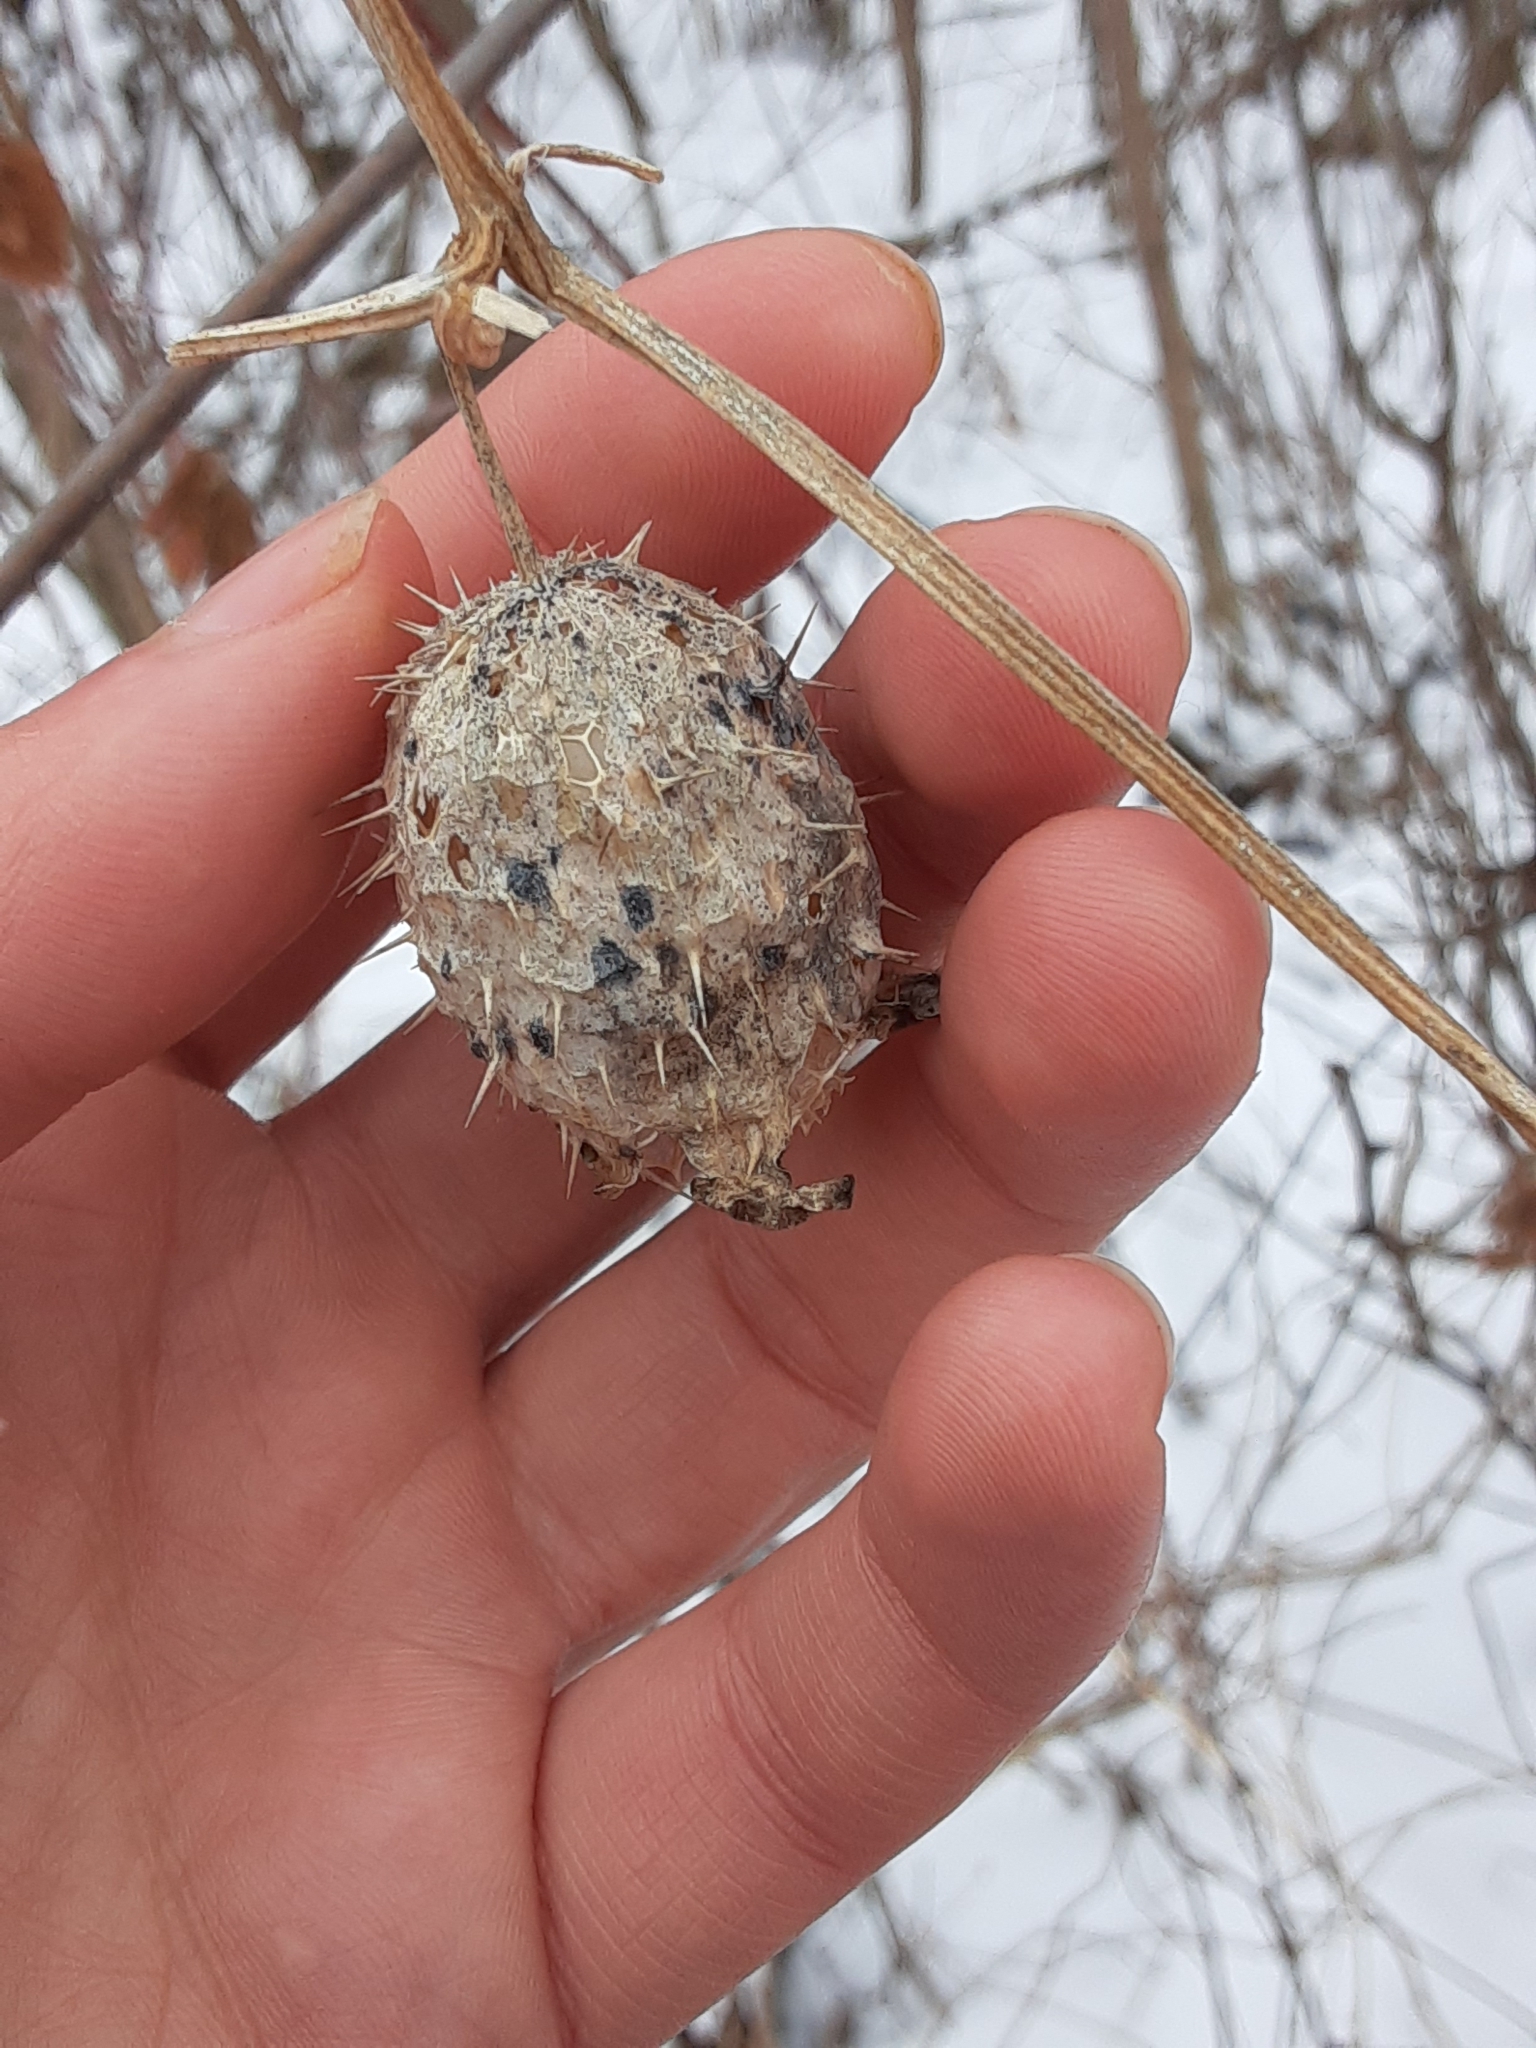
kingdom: Plantae
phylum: Tracheophyta
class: Magnoliopsida
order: Cucurbitales
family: Cucurbitaceae
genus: Echinocystis
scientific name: Echinocystis lobata
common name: Wild cucumber
